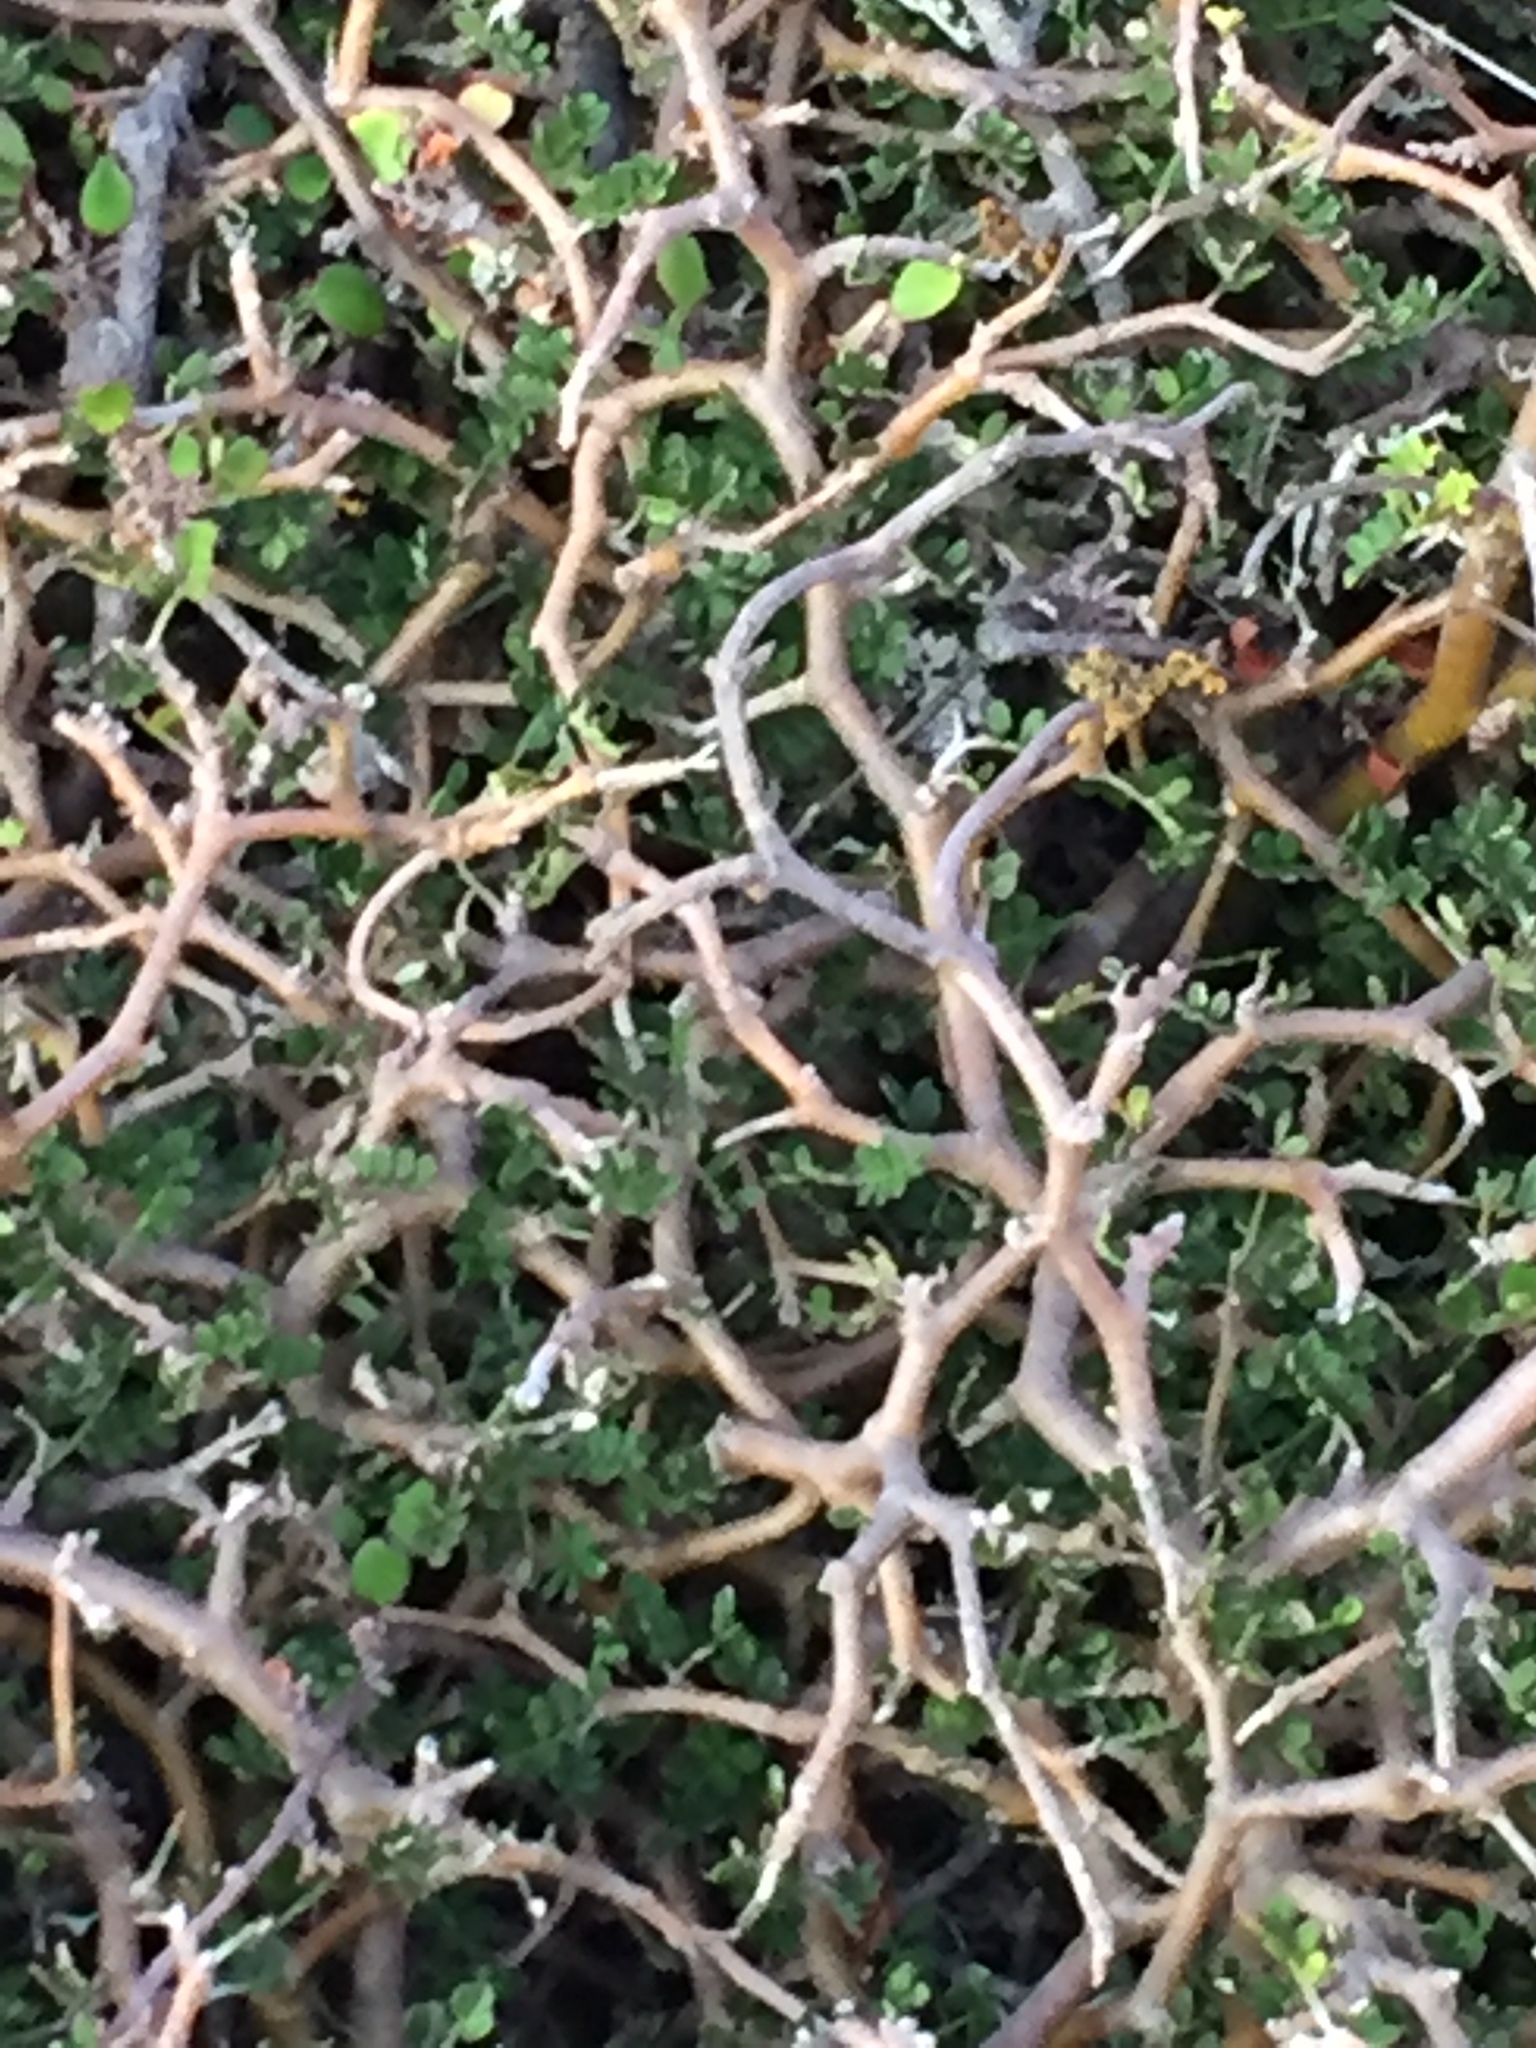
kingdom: Plantae
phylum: Tracheophyta
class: Magnoliopsida
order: Fabales
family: Fabaceae
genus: Sophora
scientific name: Sophora prostrata
